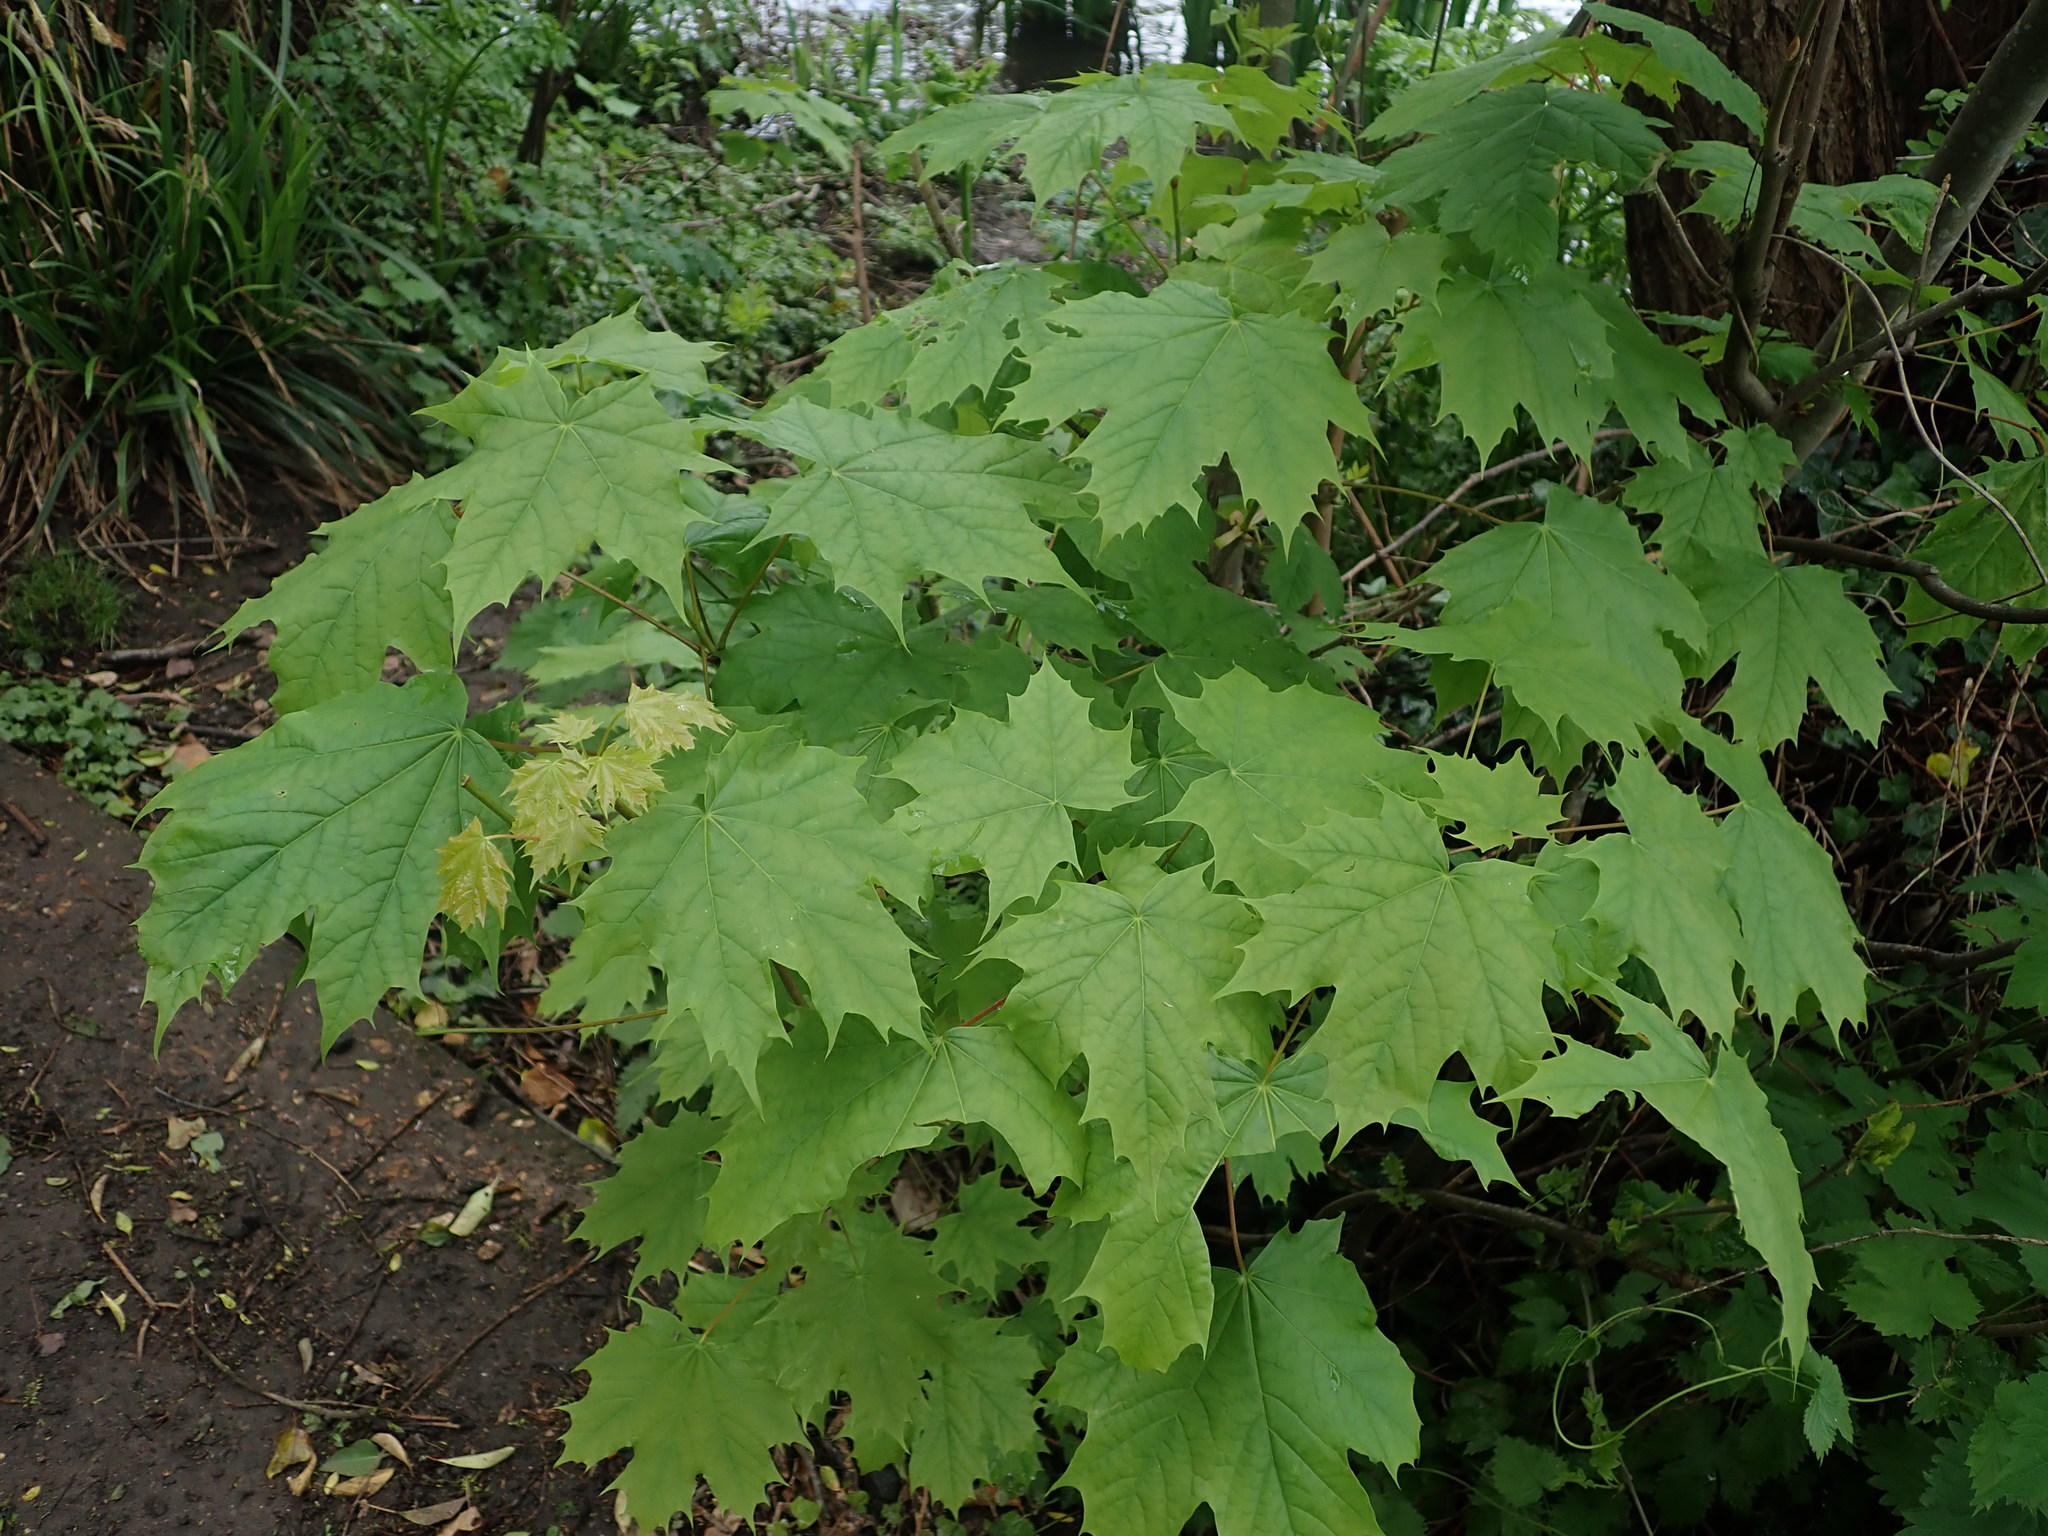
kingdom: Plantae
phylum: Tracheophyta
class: Magnoliopsida
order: Sapindales
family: Sapindaceae
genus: Acer
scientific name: Acer platanoides
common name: Norway maple
